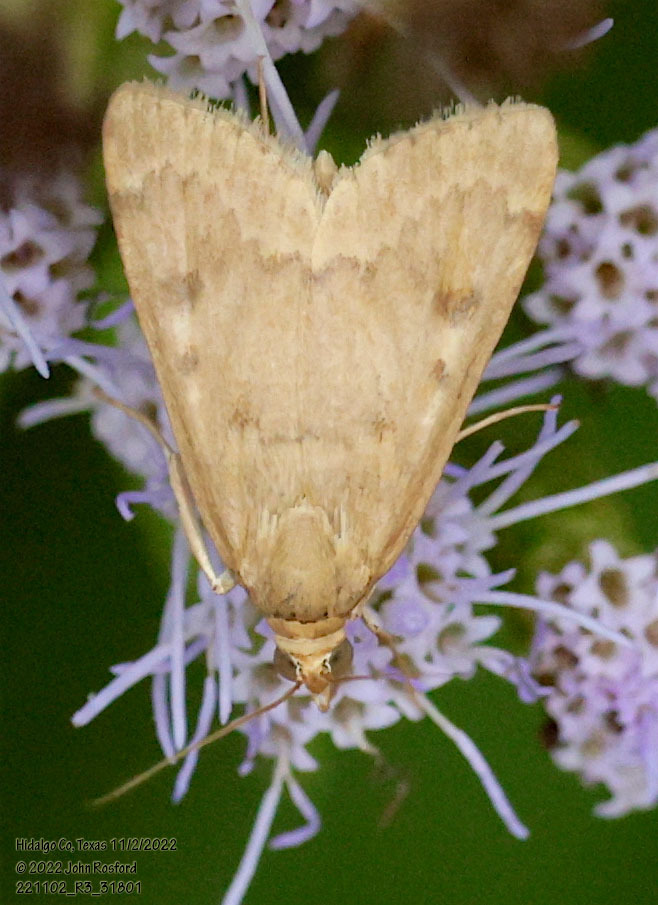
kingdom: Animalia
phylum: Arthropoda
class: Insecta
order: Lepidoptera
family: Crambidae
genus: Achyra
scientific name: Achyra rantalis
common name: Garden webworm
